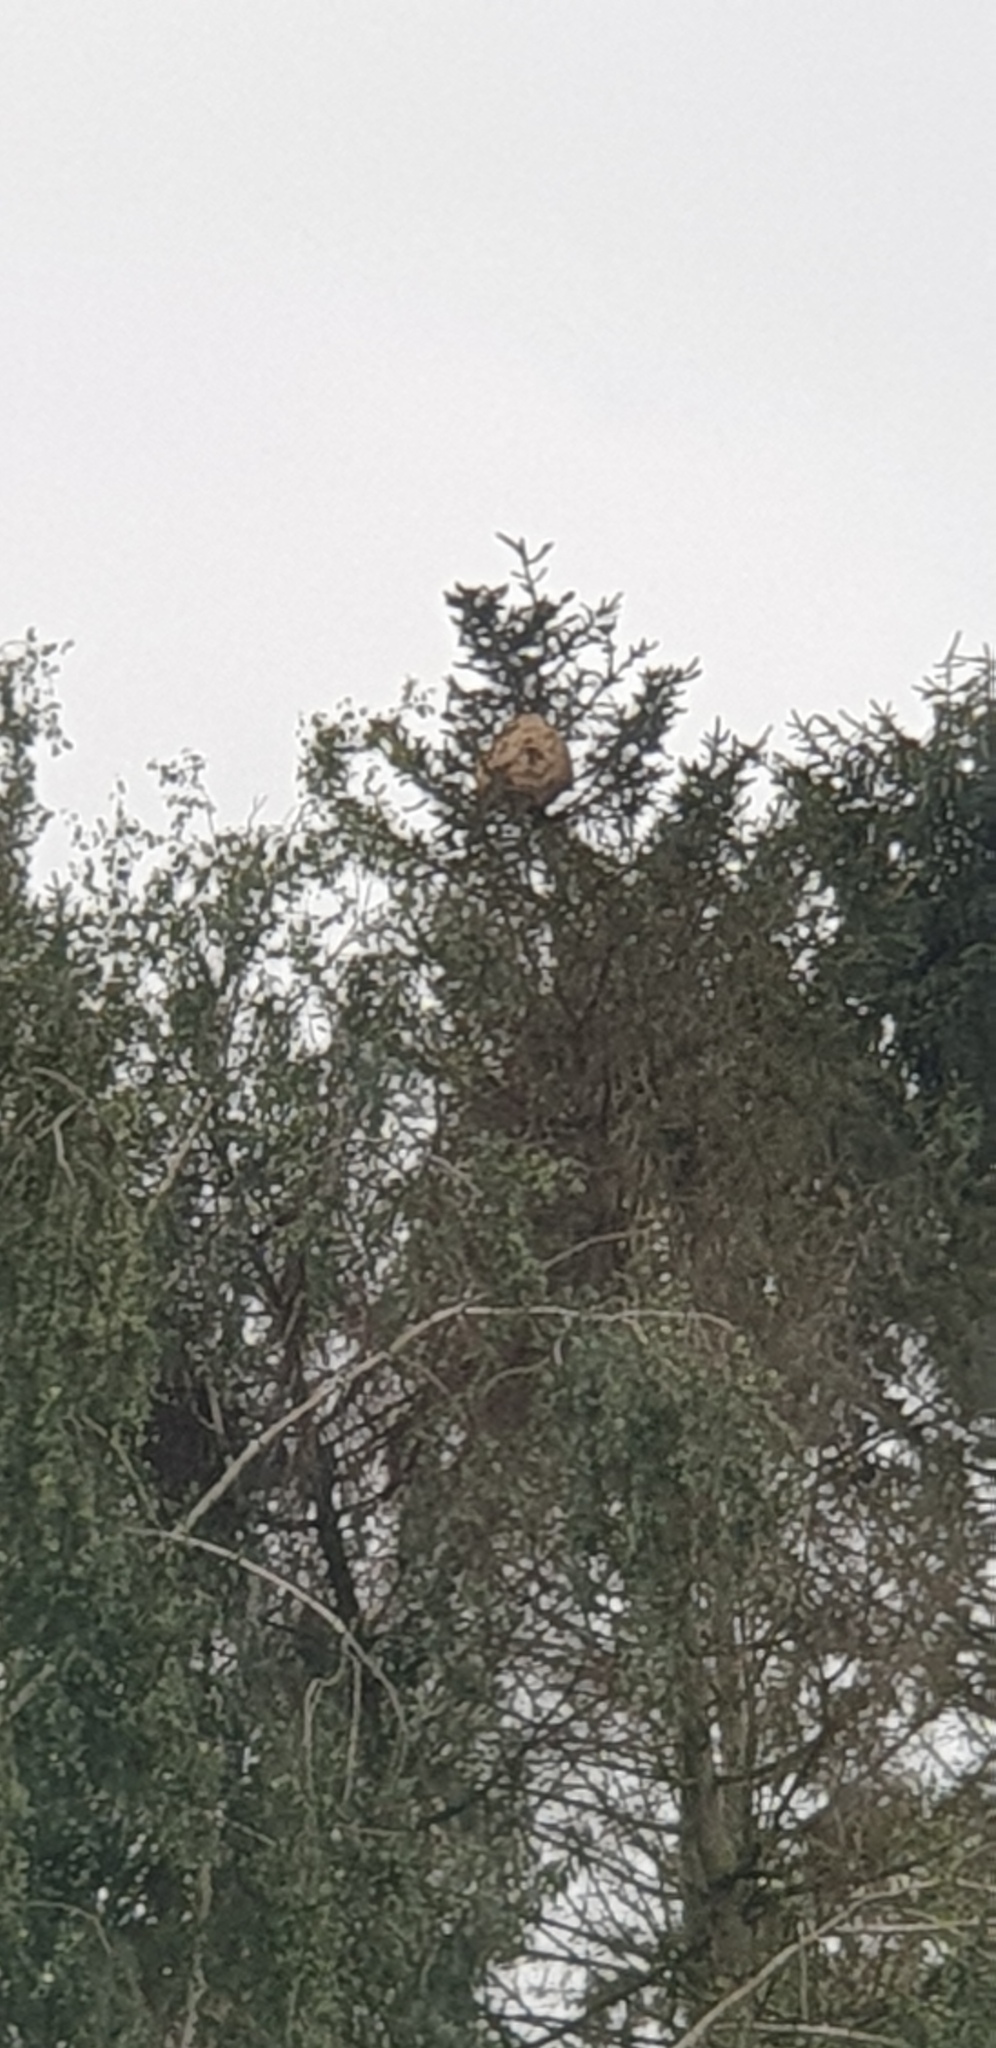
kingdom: Animalia
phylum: Arthropoda
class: Insecta
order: Hymenoptera
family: Vespidae
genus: Vespa
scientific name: Vespa velutina
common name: Asian hornet
